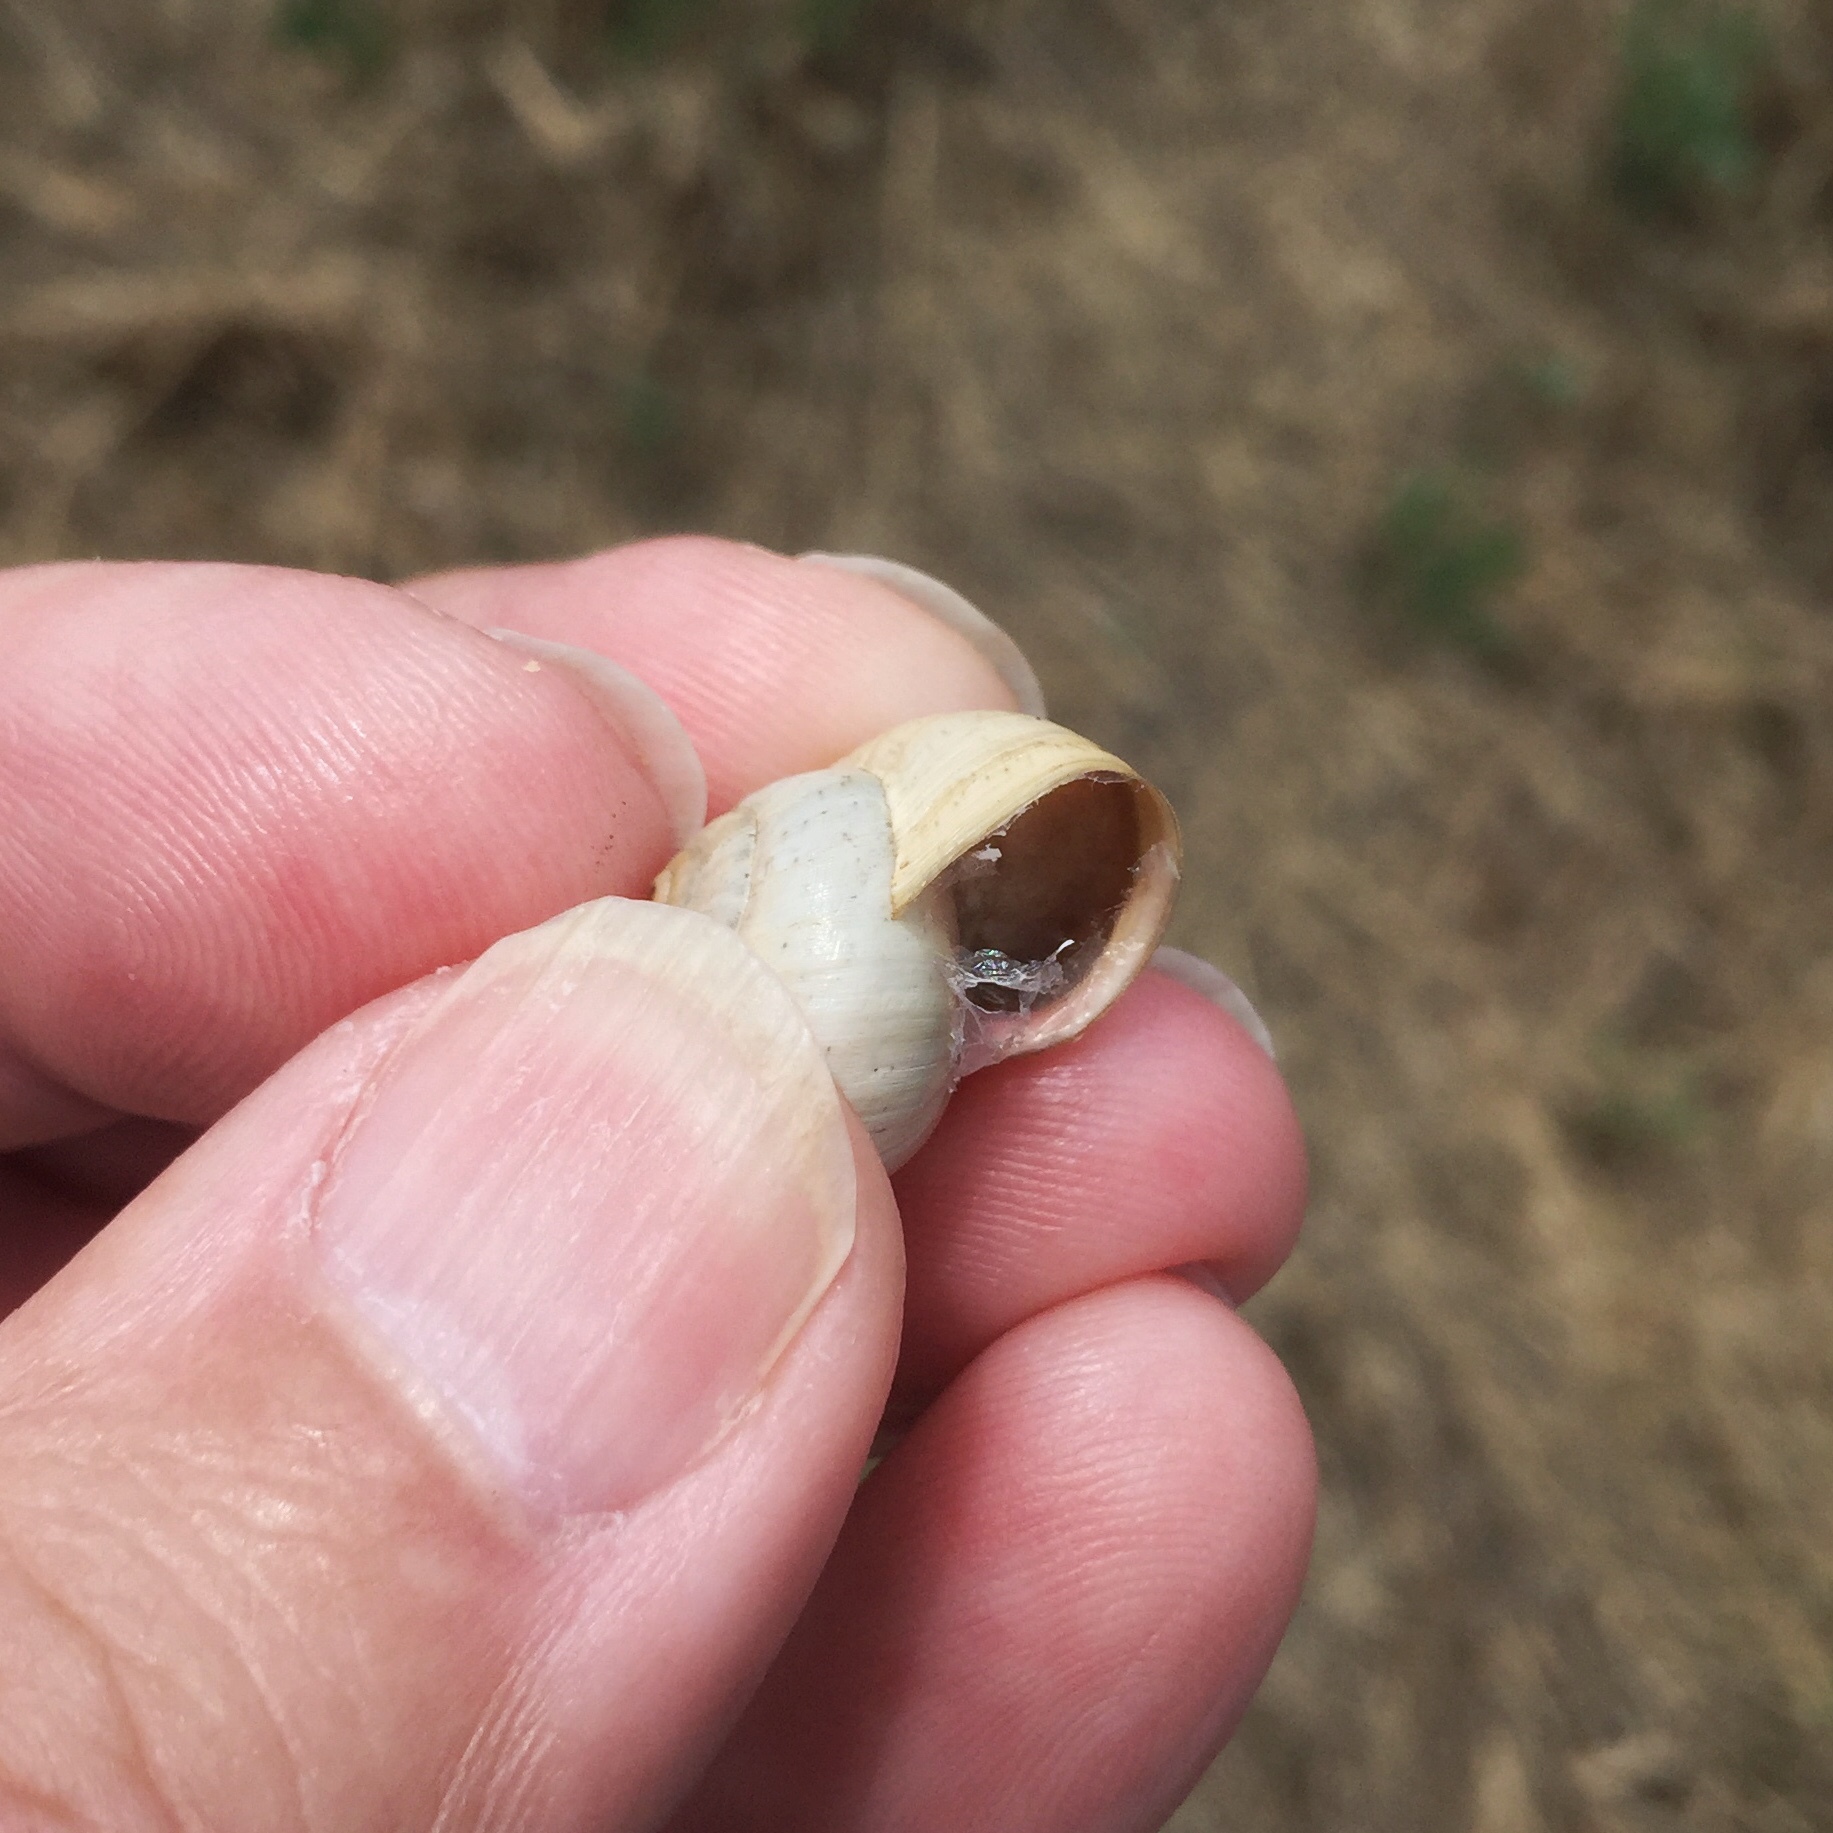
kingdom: Animalia
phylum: Mollusca
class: Gastropoda
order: Stylommatophora
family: Helicidae
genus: Theba
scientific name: Theba pisana
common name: White snail
